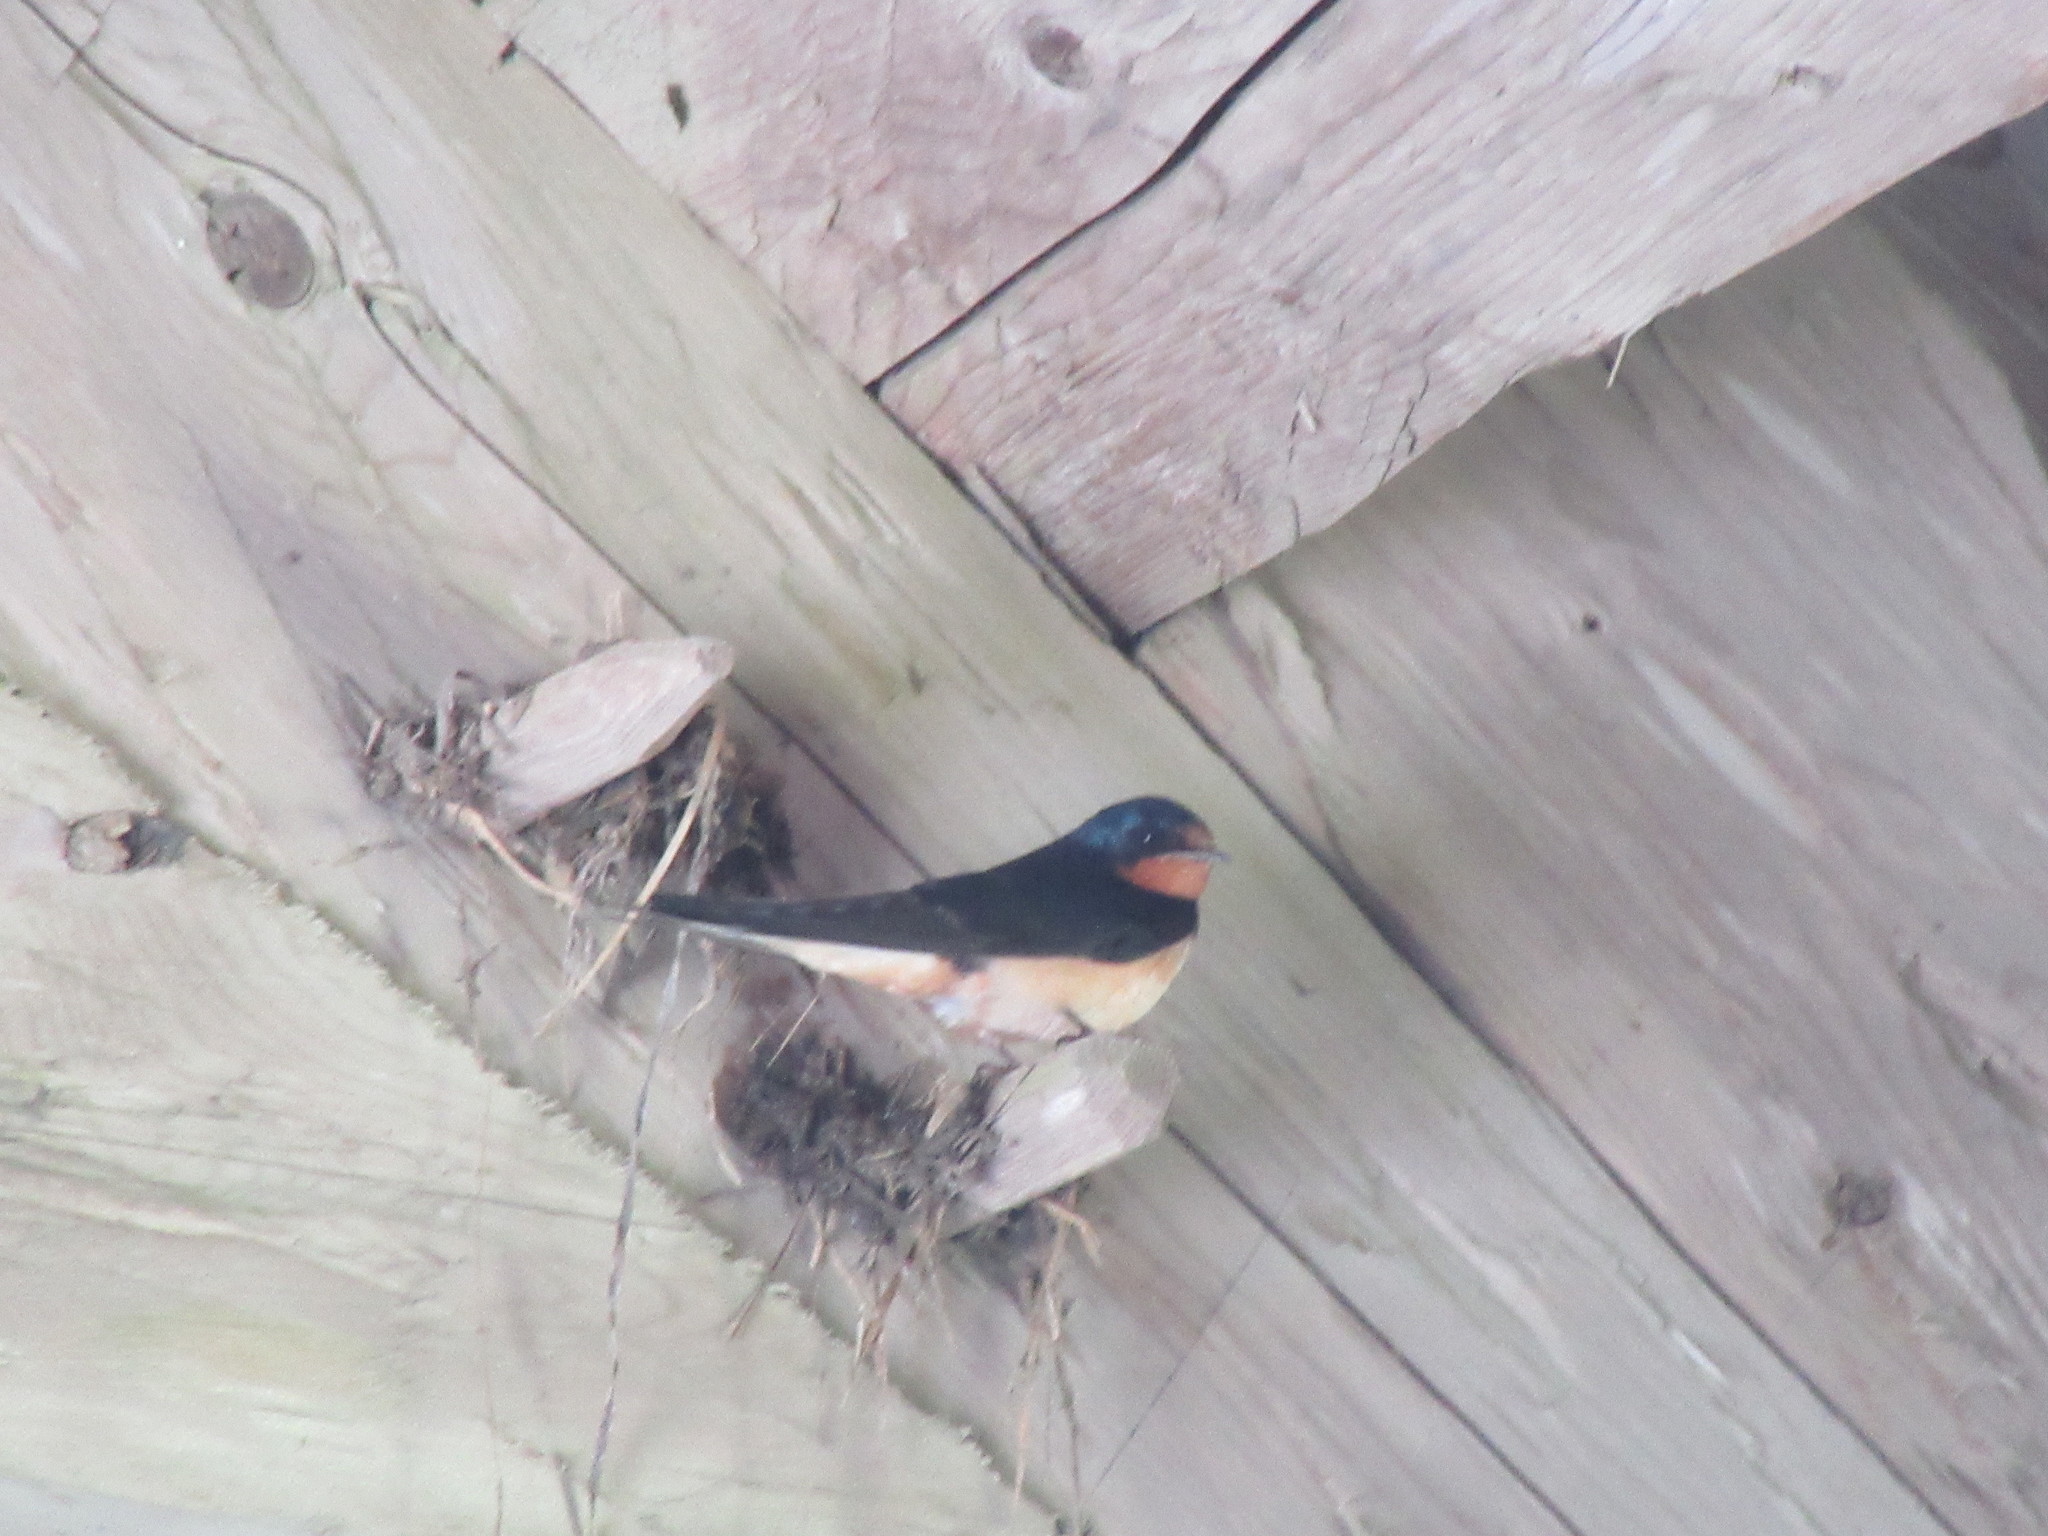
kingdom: Animalia
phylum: Chordata
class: Aves
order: Passeriformes
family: Hirundinidae
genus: Hirundo
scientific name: Hirundo rustica
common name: Barn swallow
